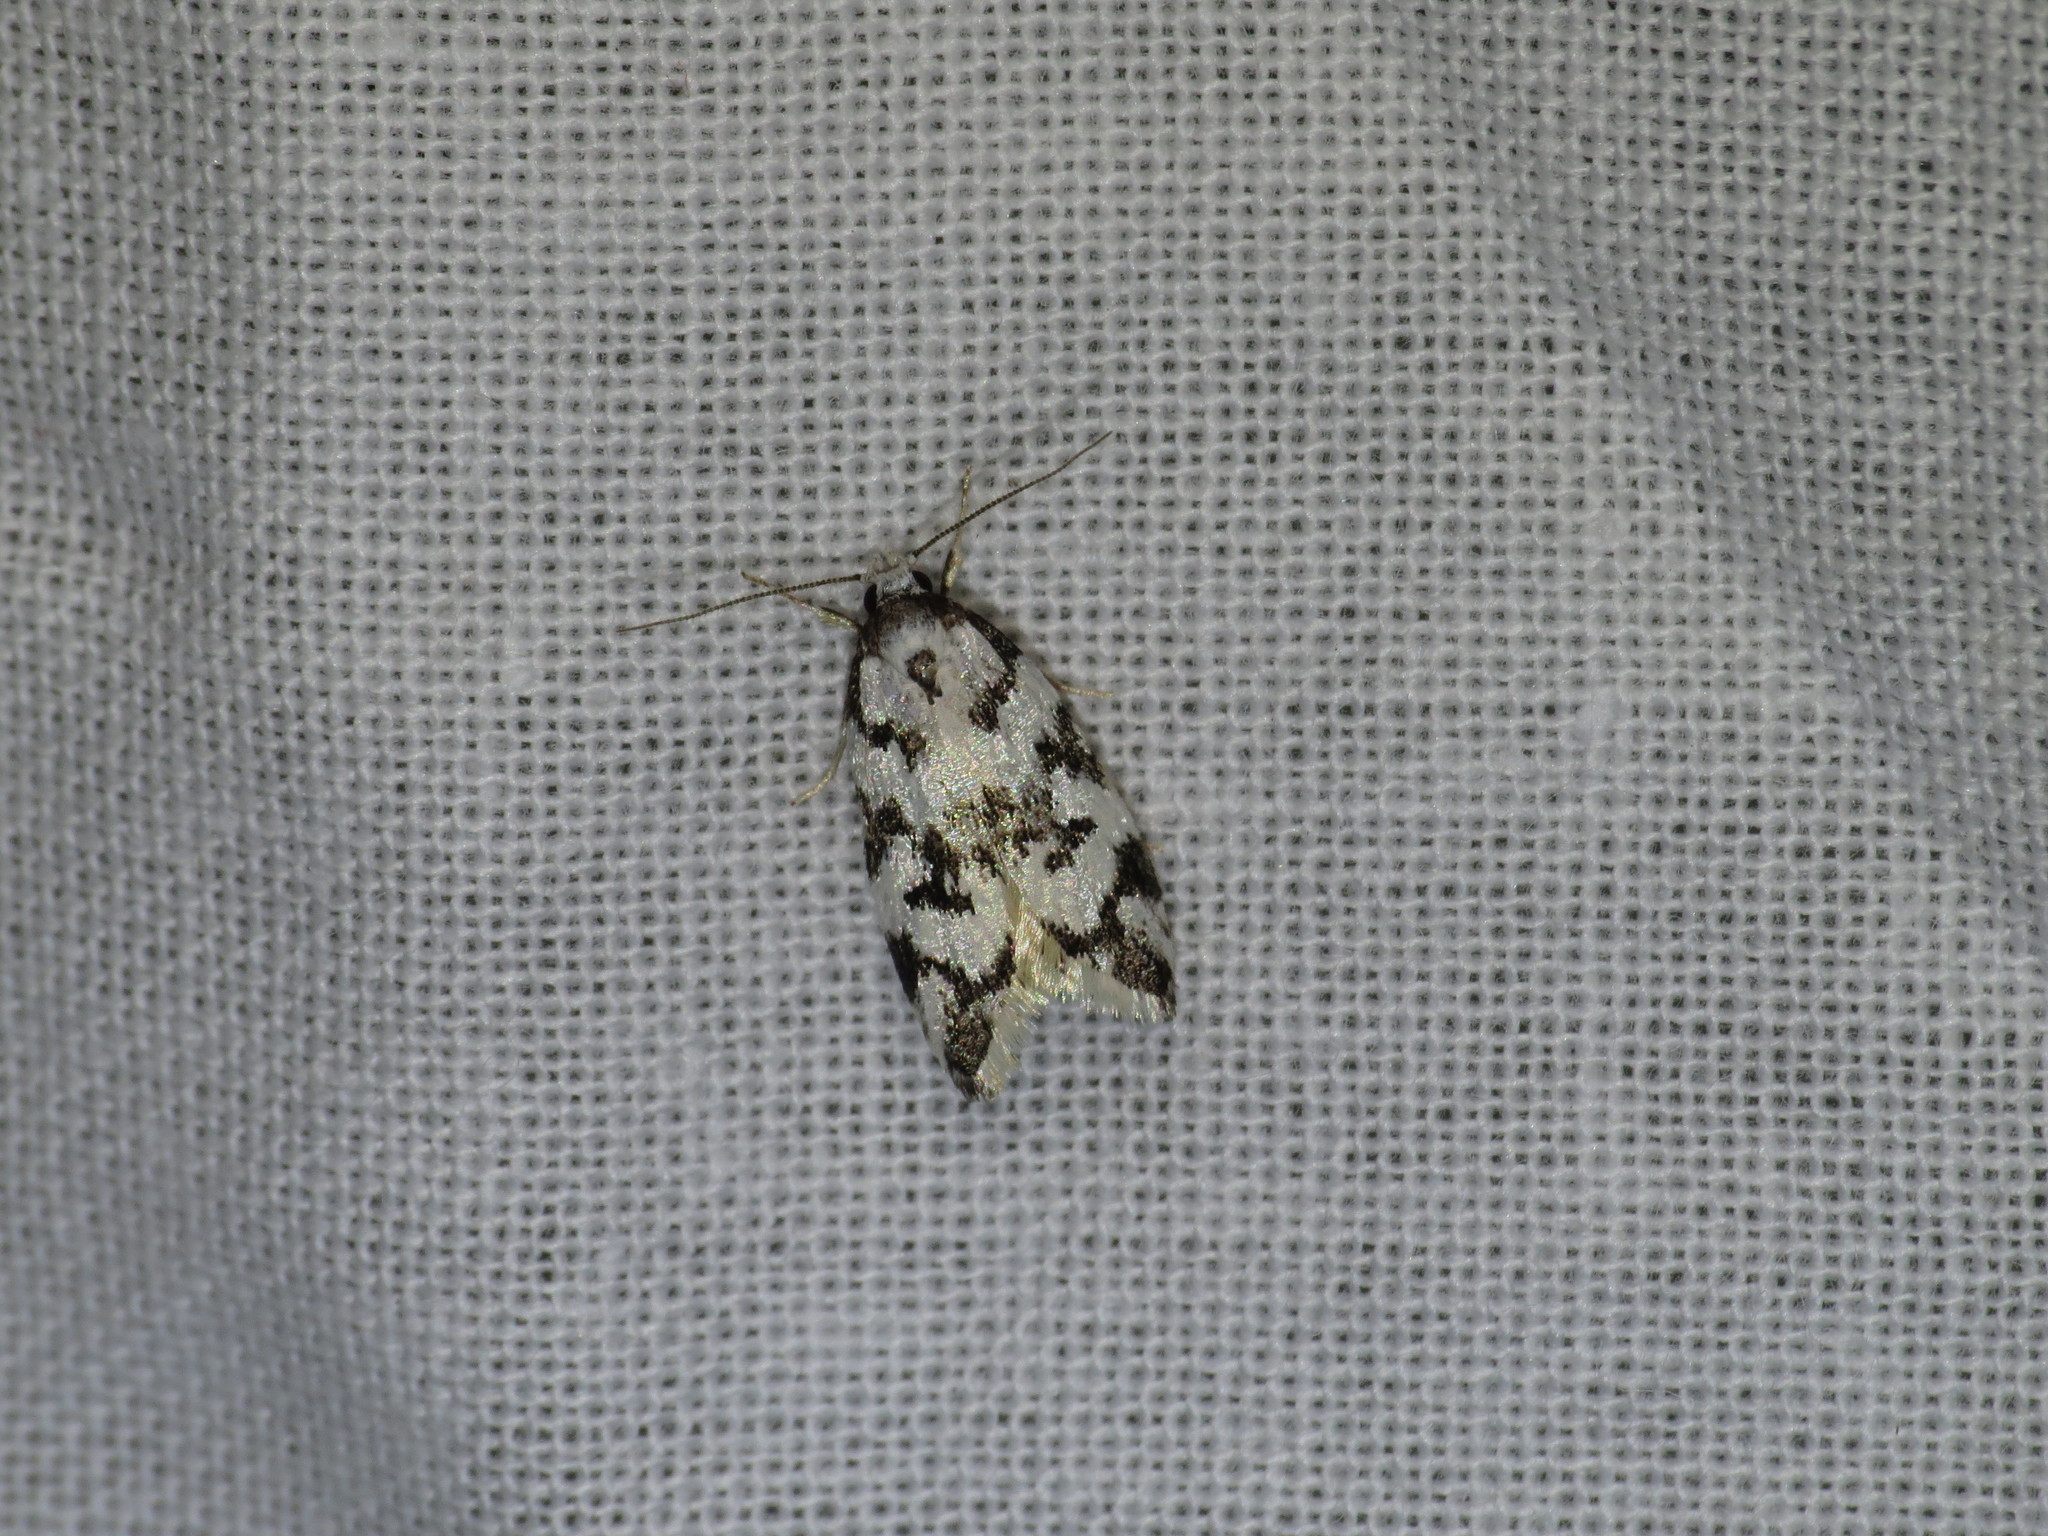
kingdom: Animalia
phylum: Arthropoda
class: Insecta
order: Lepidoptera
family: Oecophoridae
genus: Cosmaresta
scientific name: Cosmaresta charaxias
